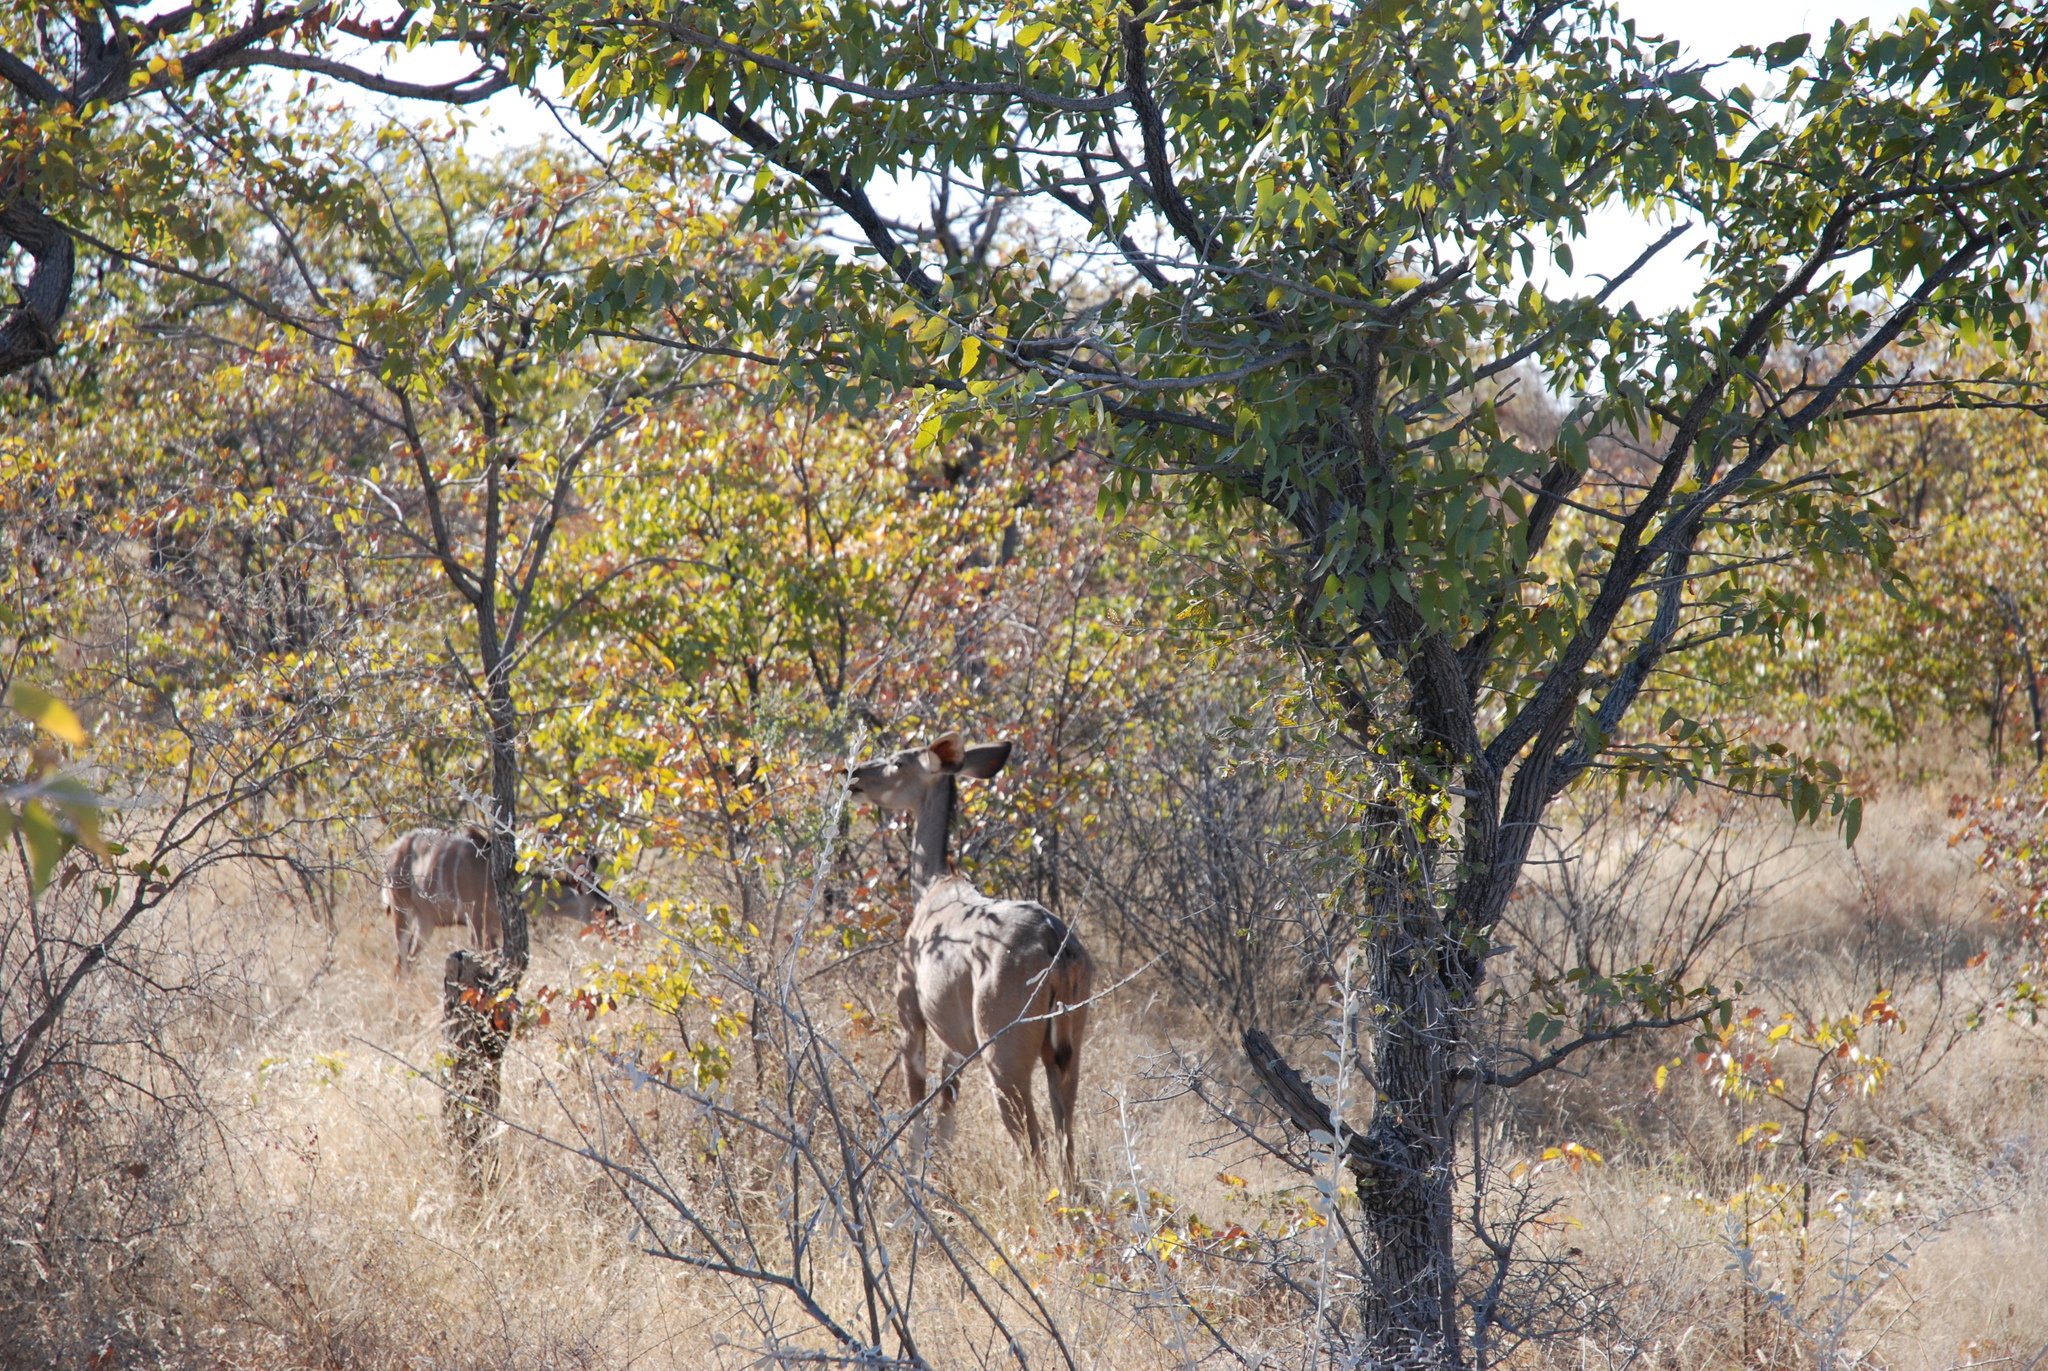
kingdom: Animalia
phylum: Chordata
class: Mammalia
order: Artiodactyla
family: Bovidae
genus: Tragelaphus
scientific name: Tragelaphus strepsiceros
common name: Greater kudu
